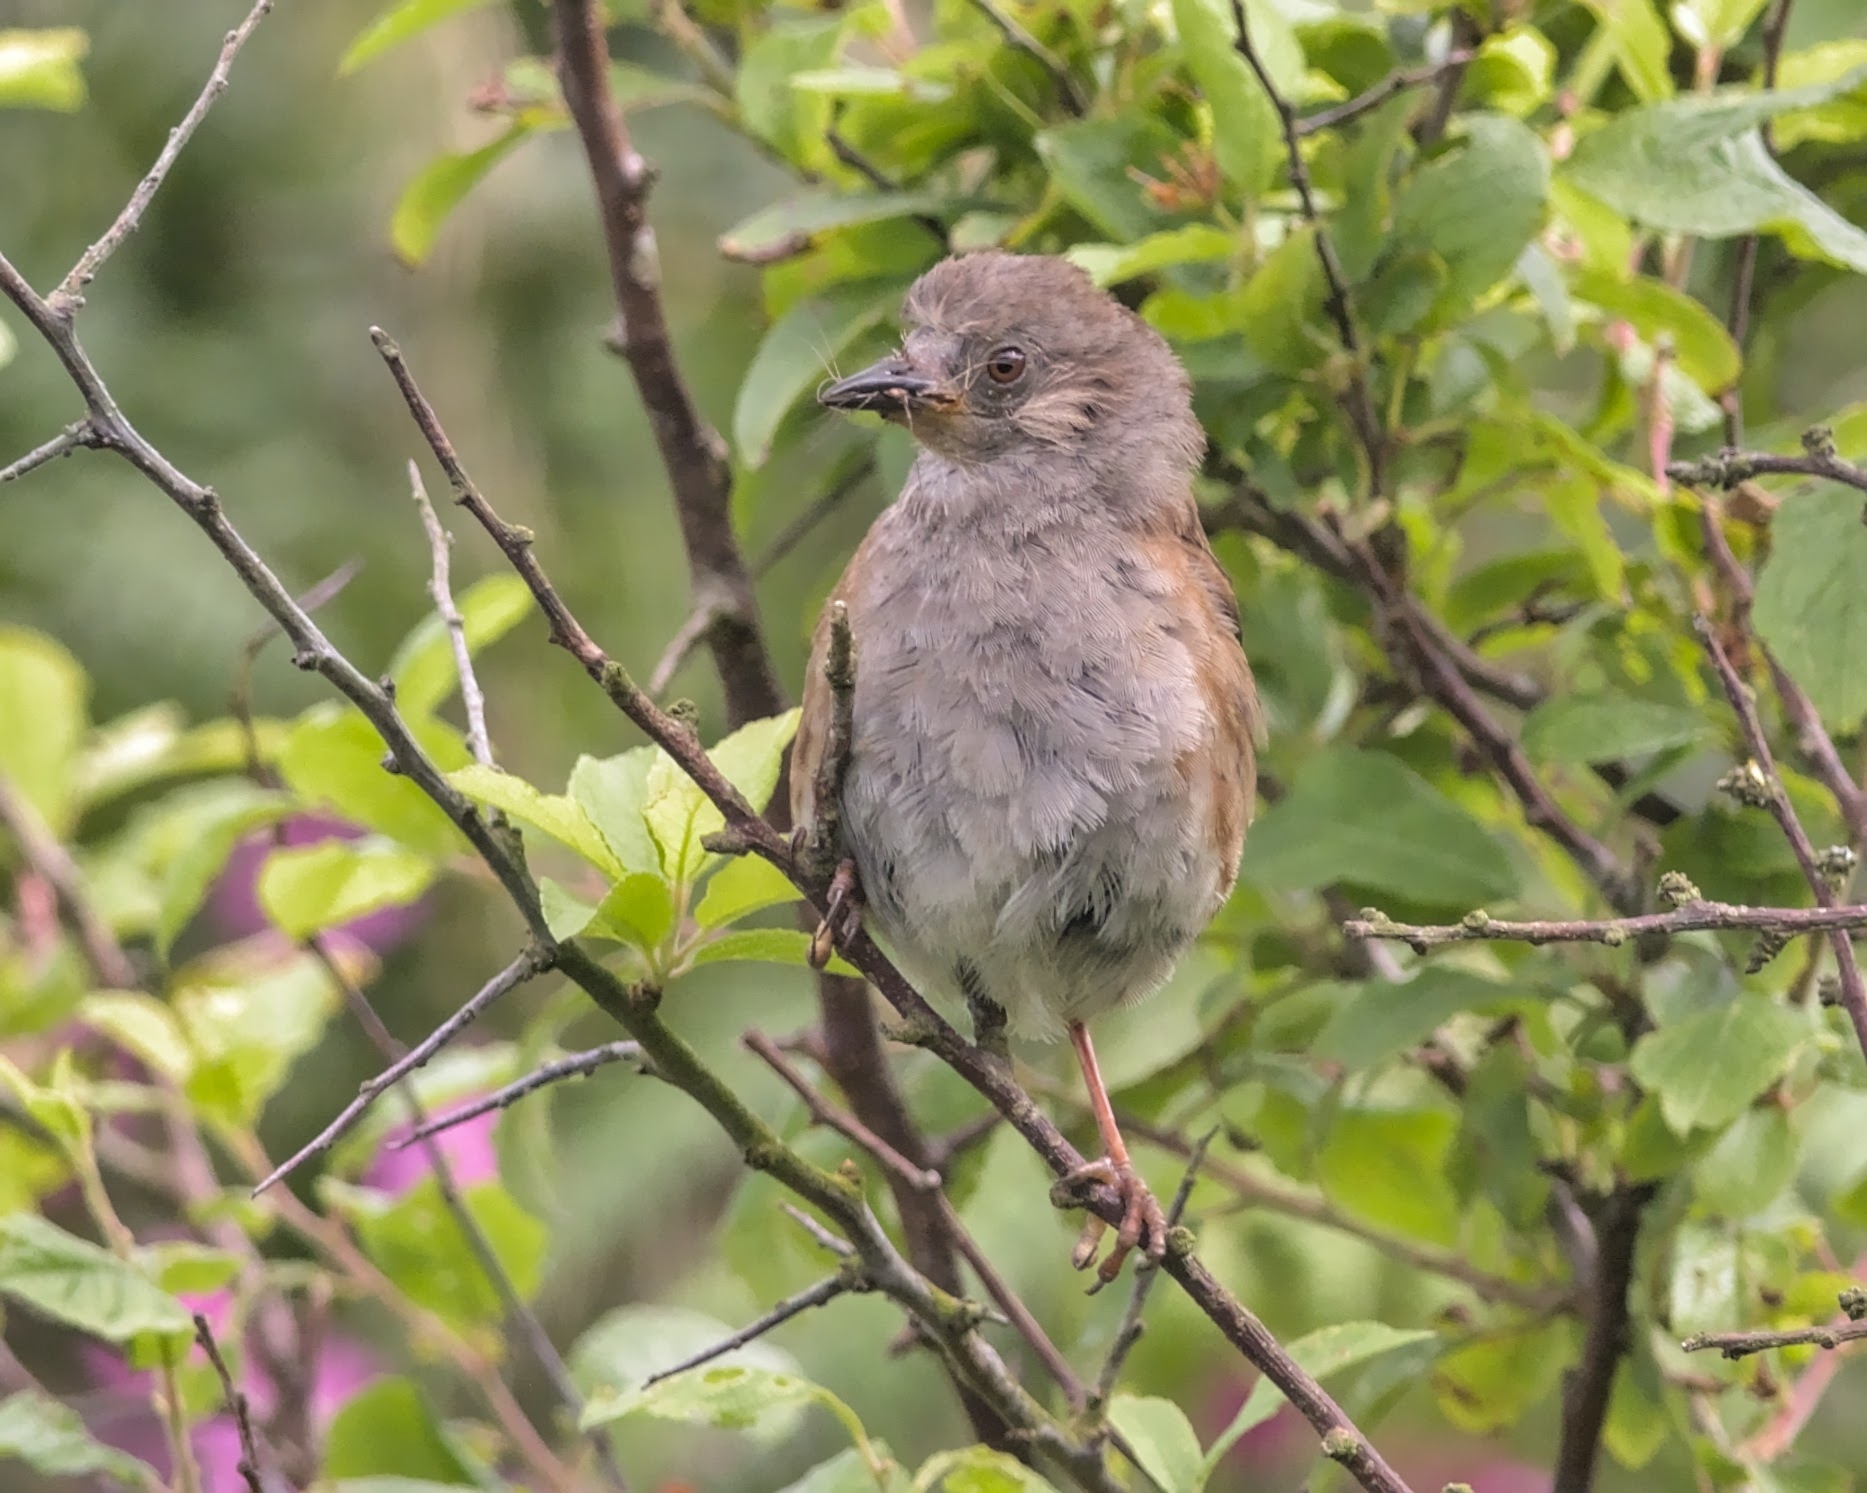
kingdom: Animalia
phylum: Chordata
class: Aves
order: Passeriformes
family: Prunellidae
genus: Prunella
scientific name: Prunella modularis
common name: Dunnock
